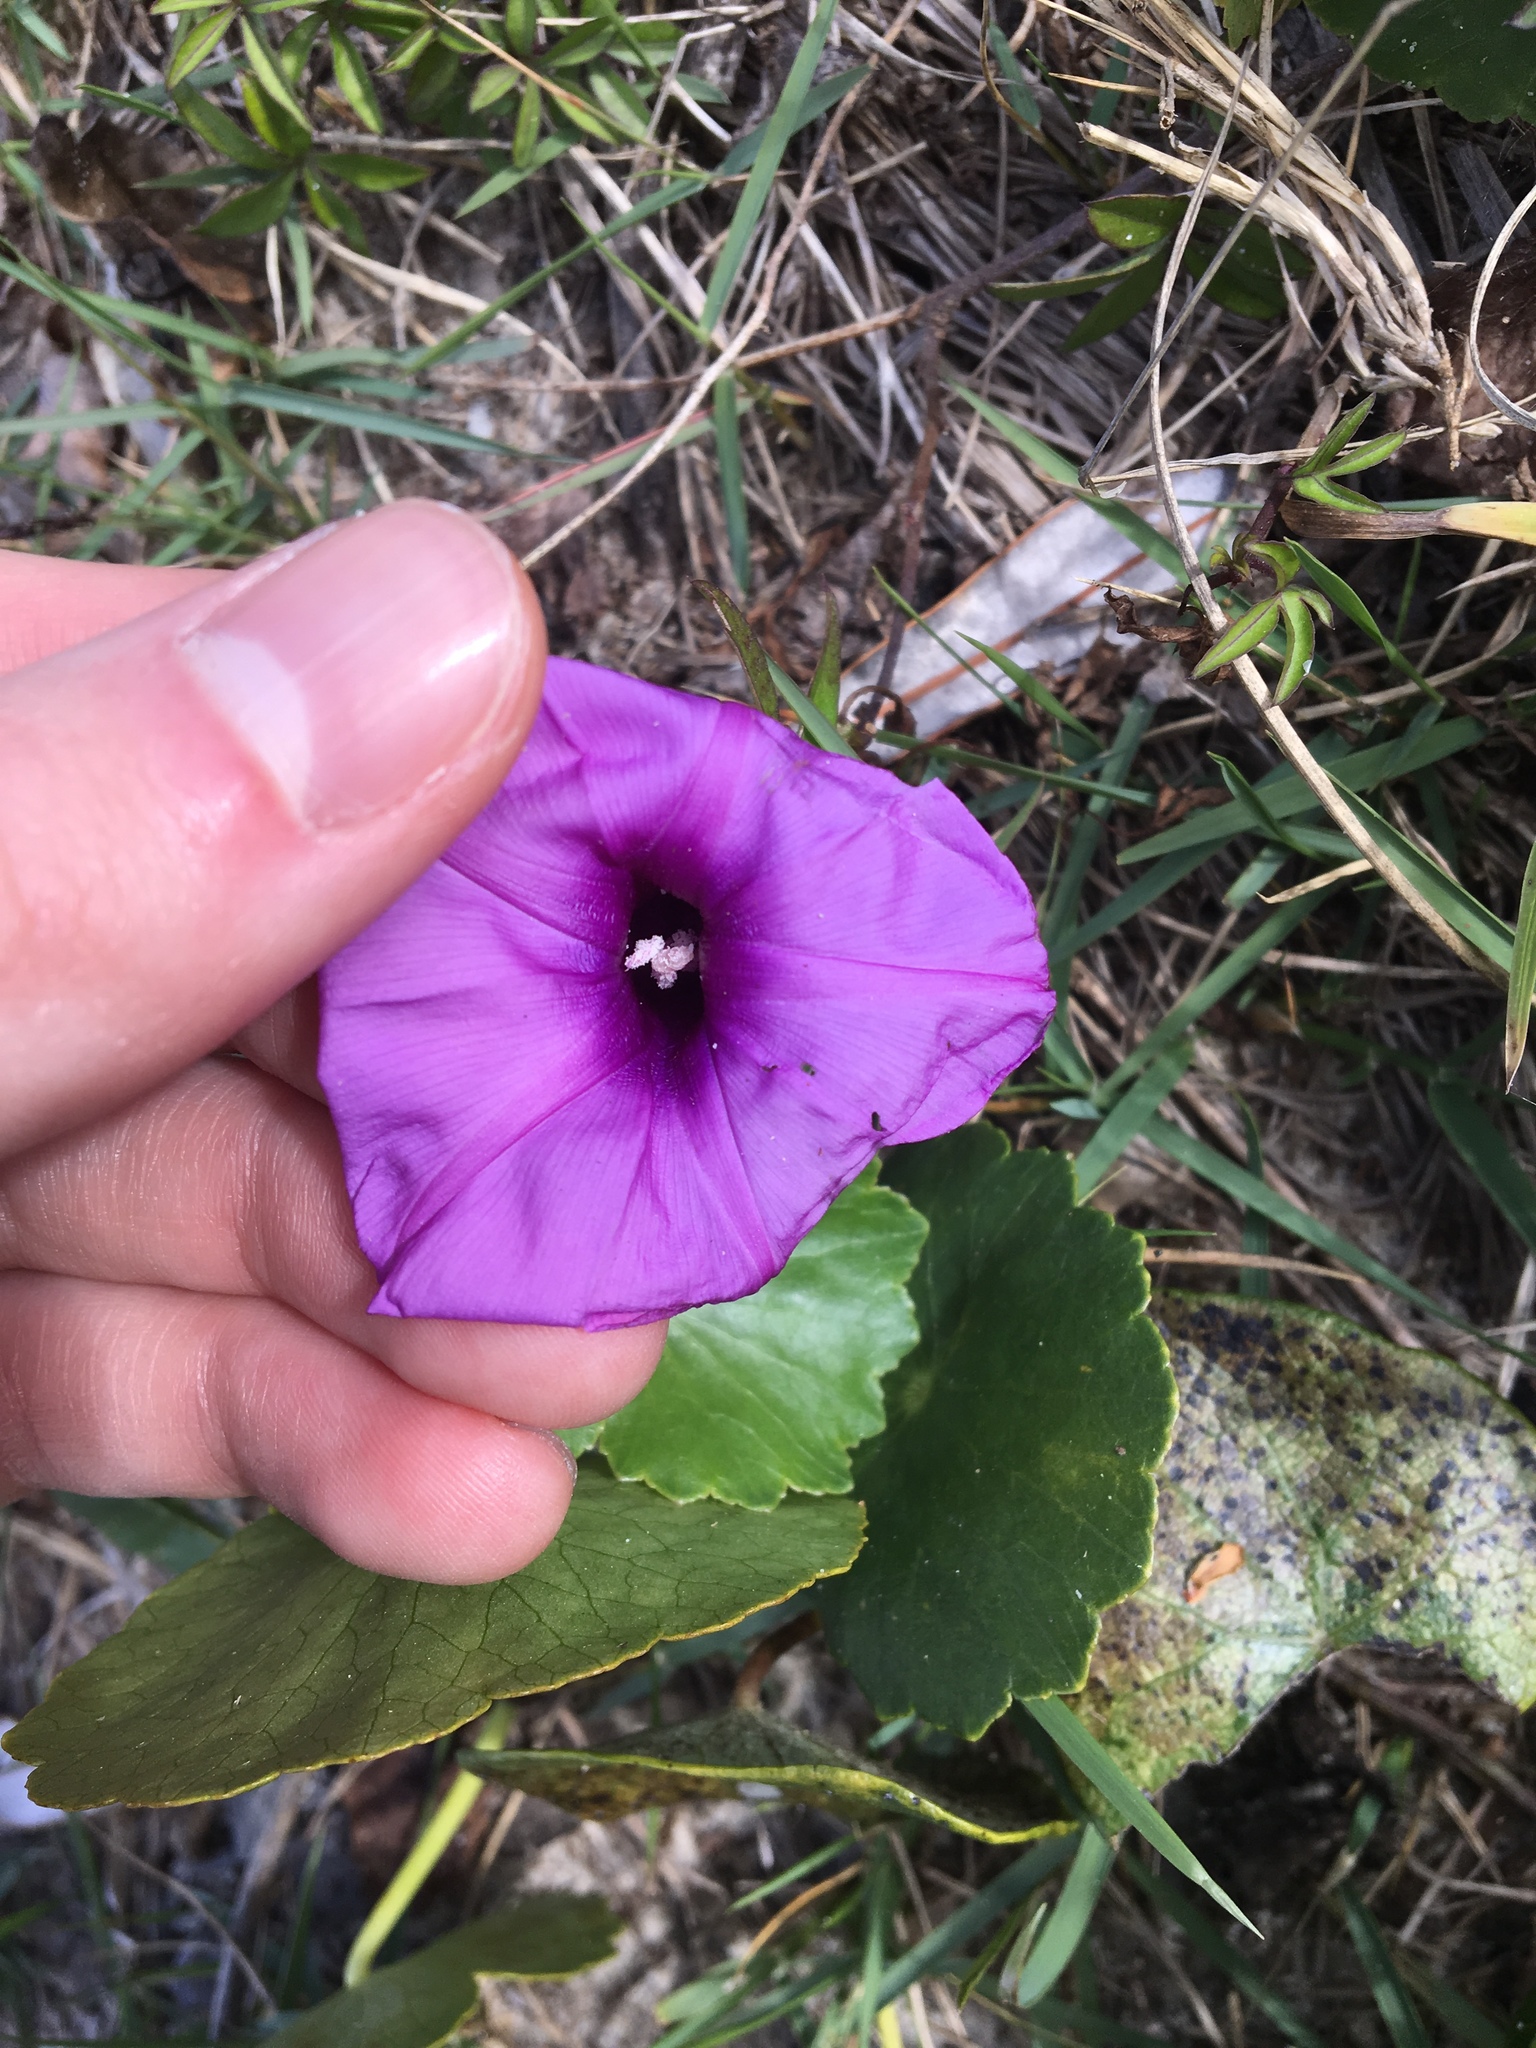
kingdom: Plantae
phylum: Tracheophyta
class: Magnoliopsida
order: Solanales
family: Convolvulaceae
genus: Ipomoea
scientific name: Ipomoea cairica
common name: Mile a minute vine
